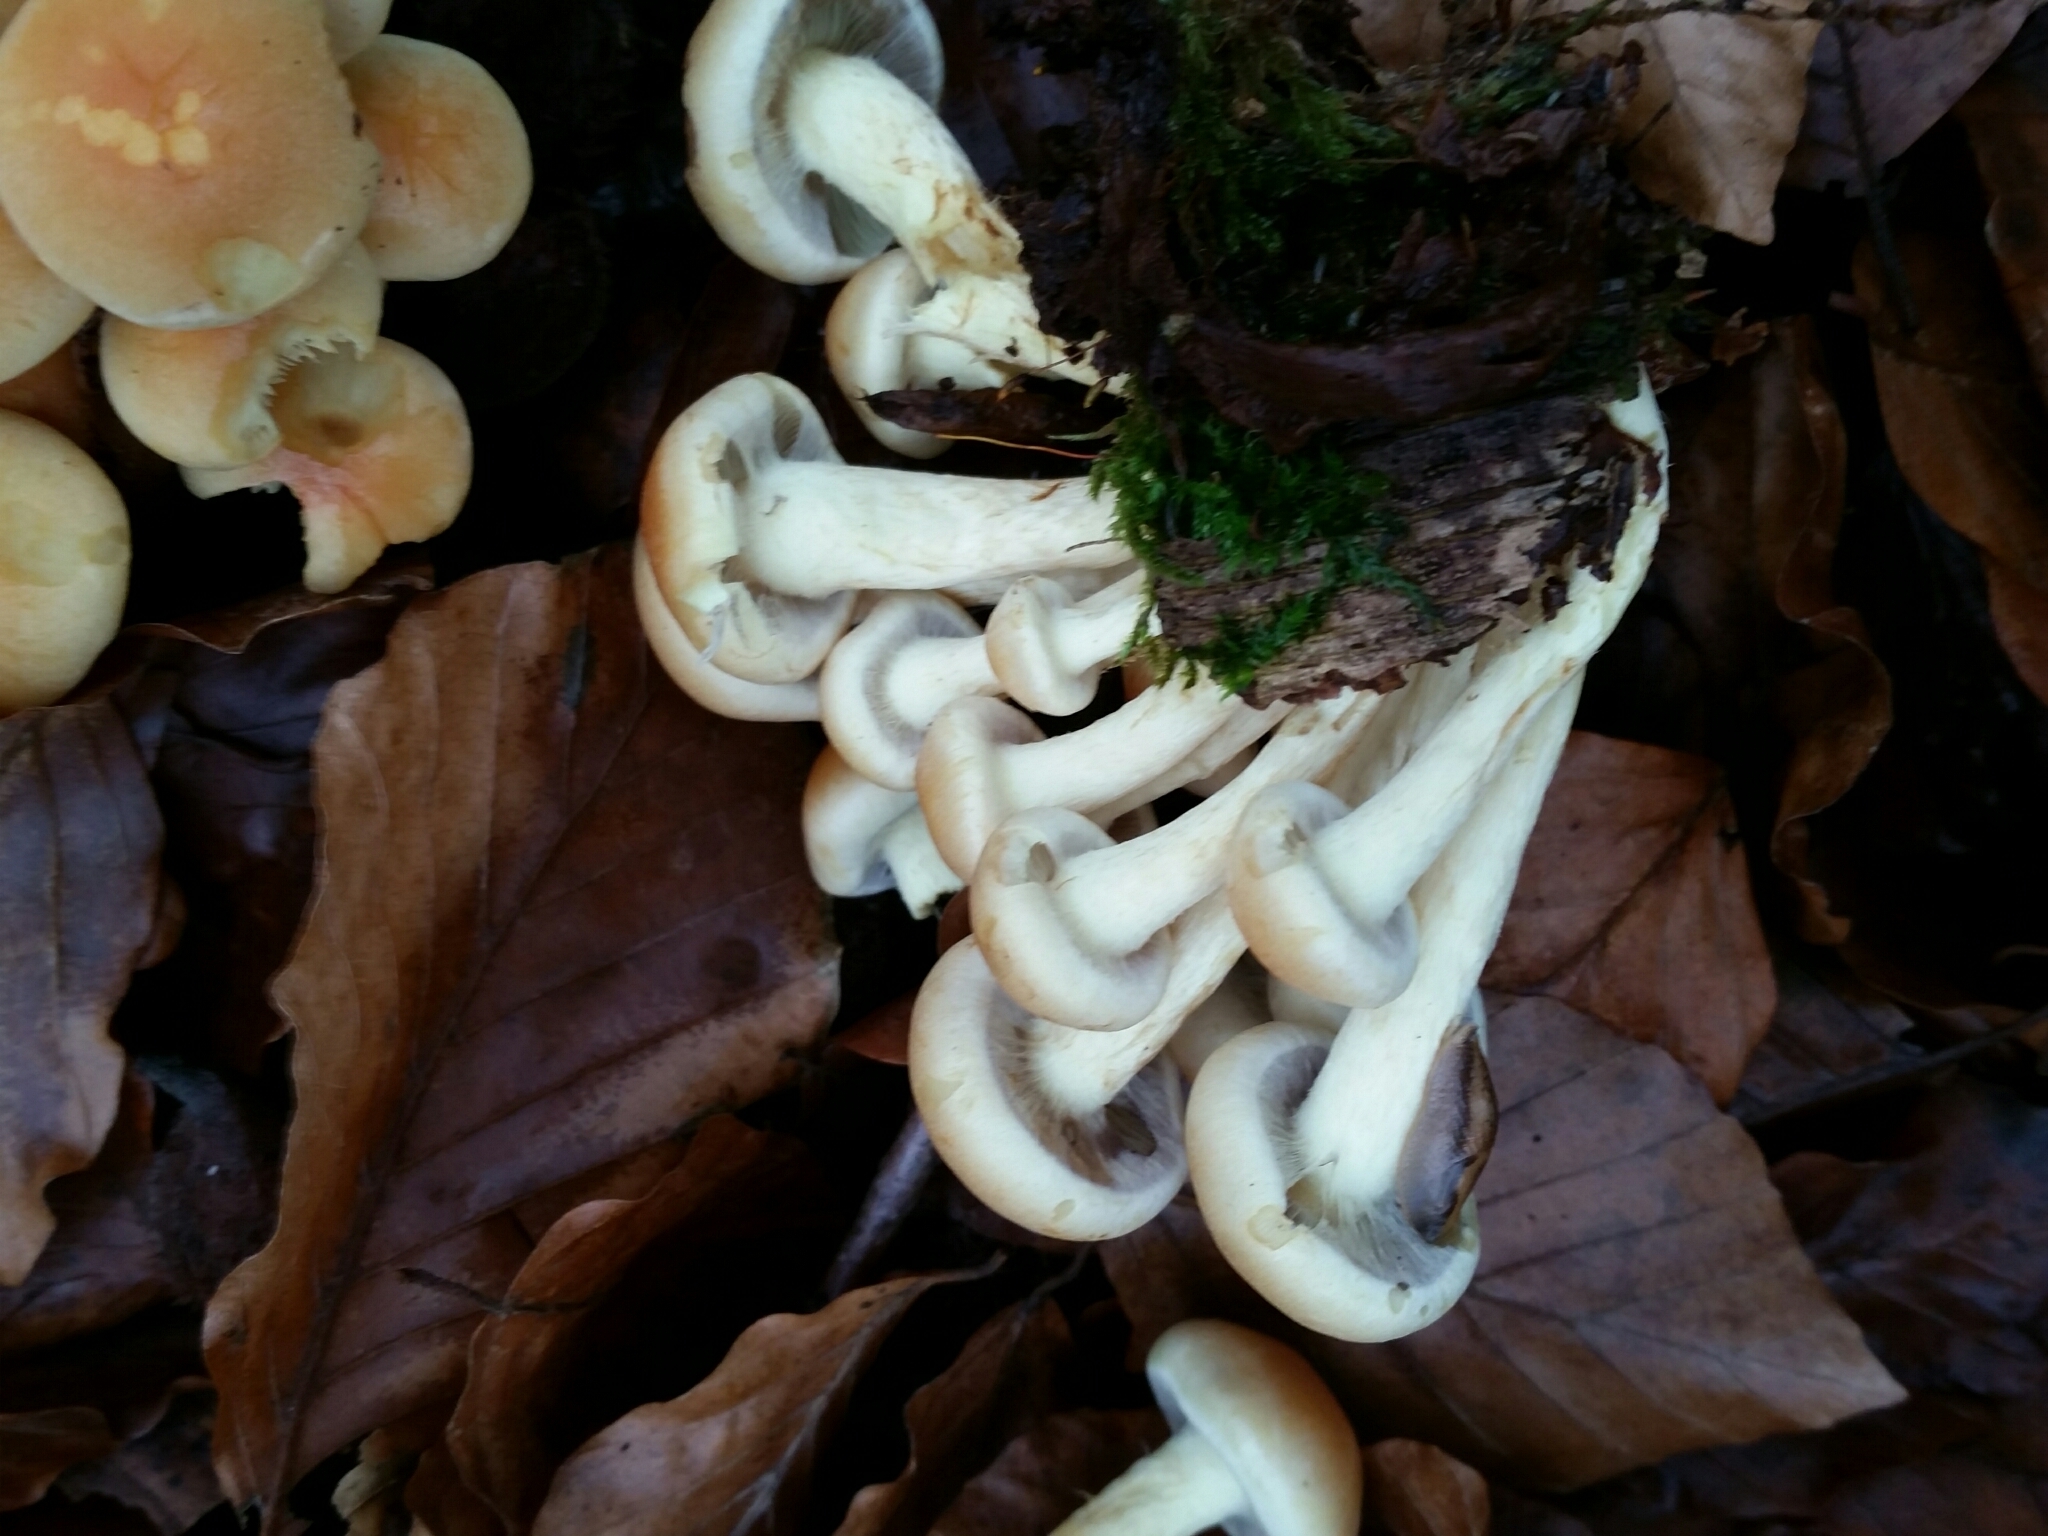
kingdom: Fungi
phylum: Basidiomycota
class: Agaricomycetes
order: Agaricales
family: Strophariaceae
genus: Hypholoma
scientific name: Hypholoma fasciculare
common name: Sulphur tuft
